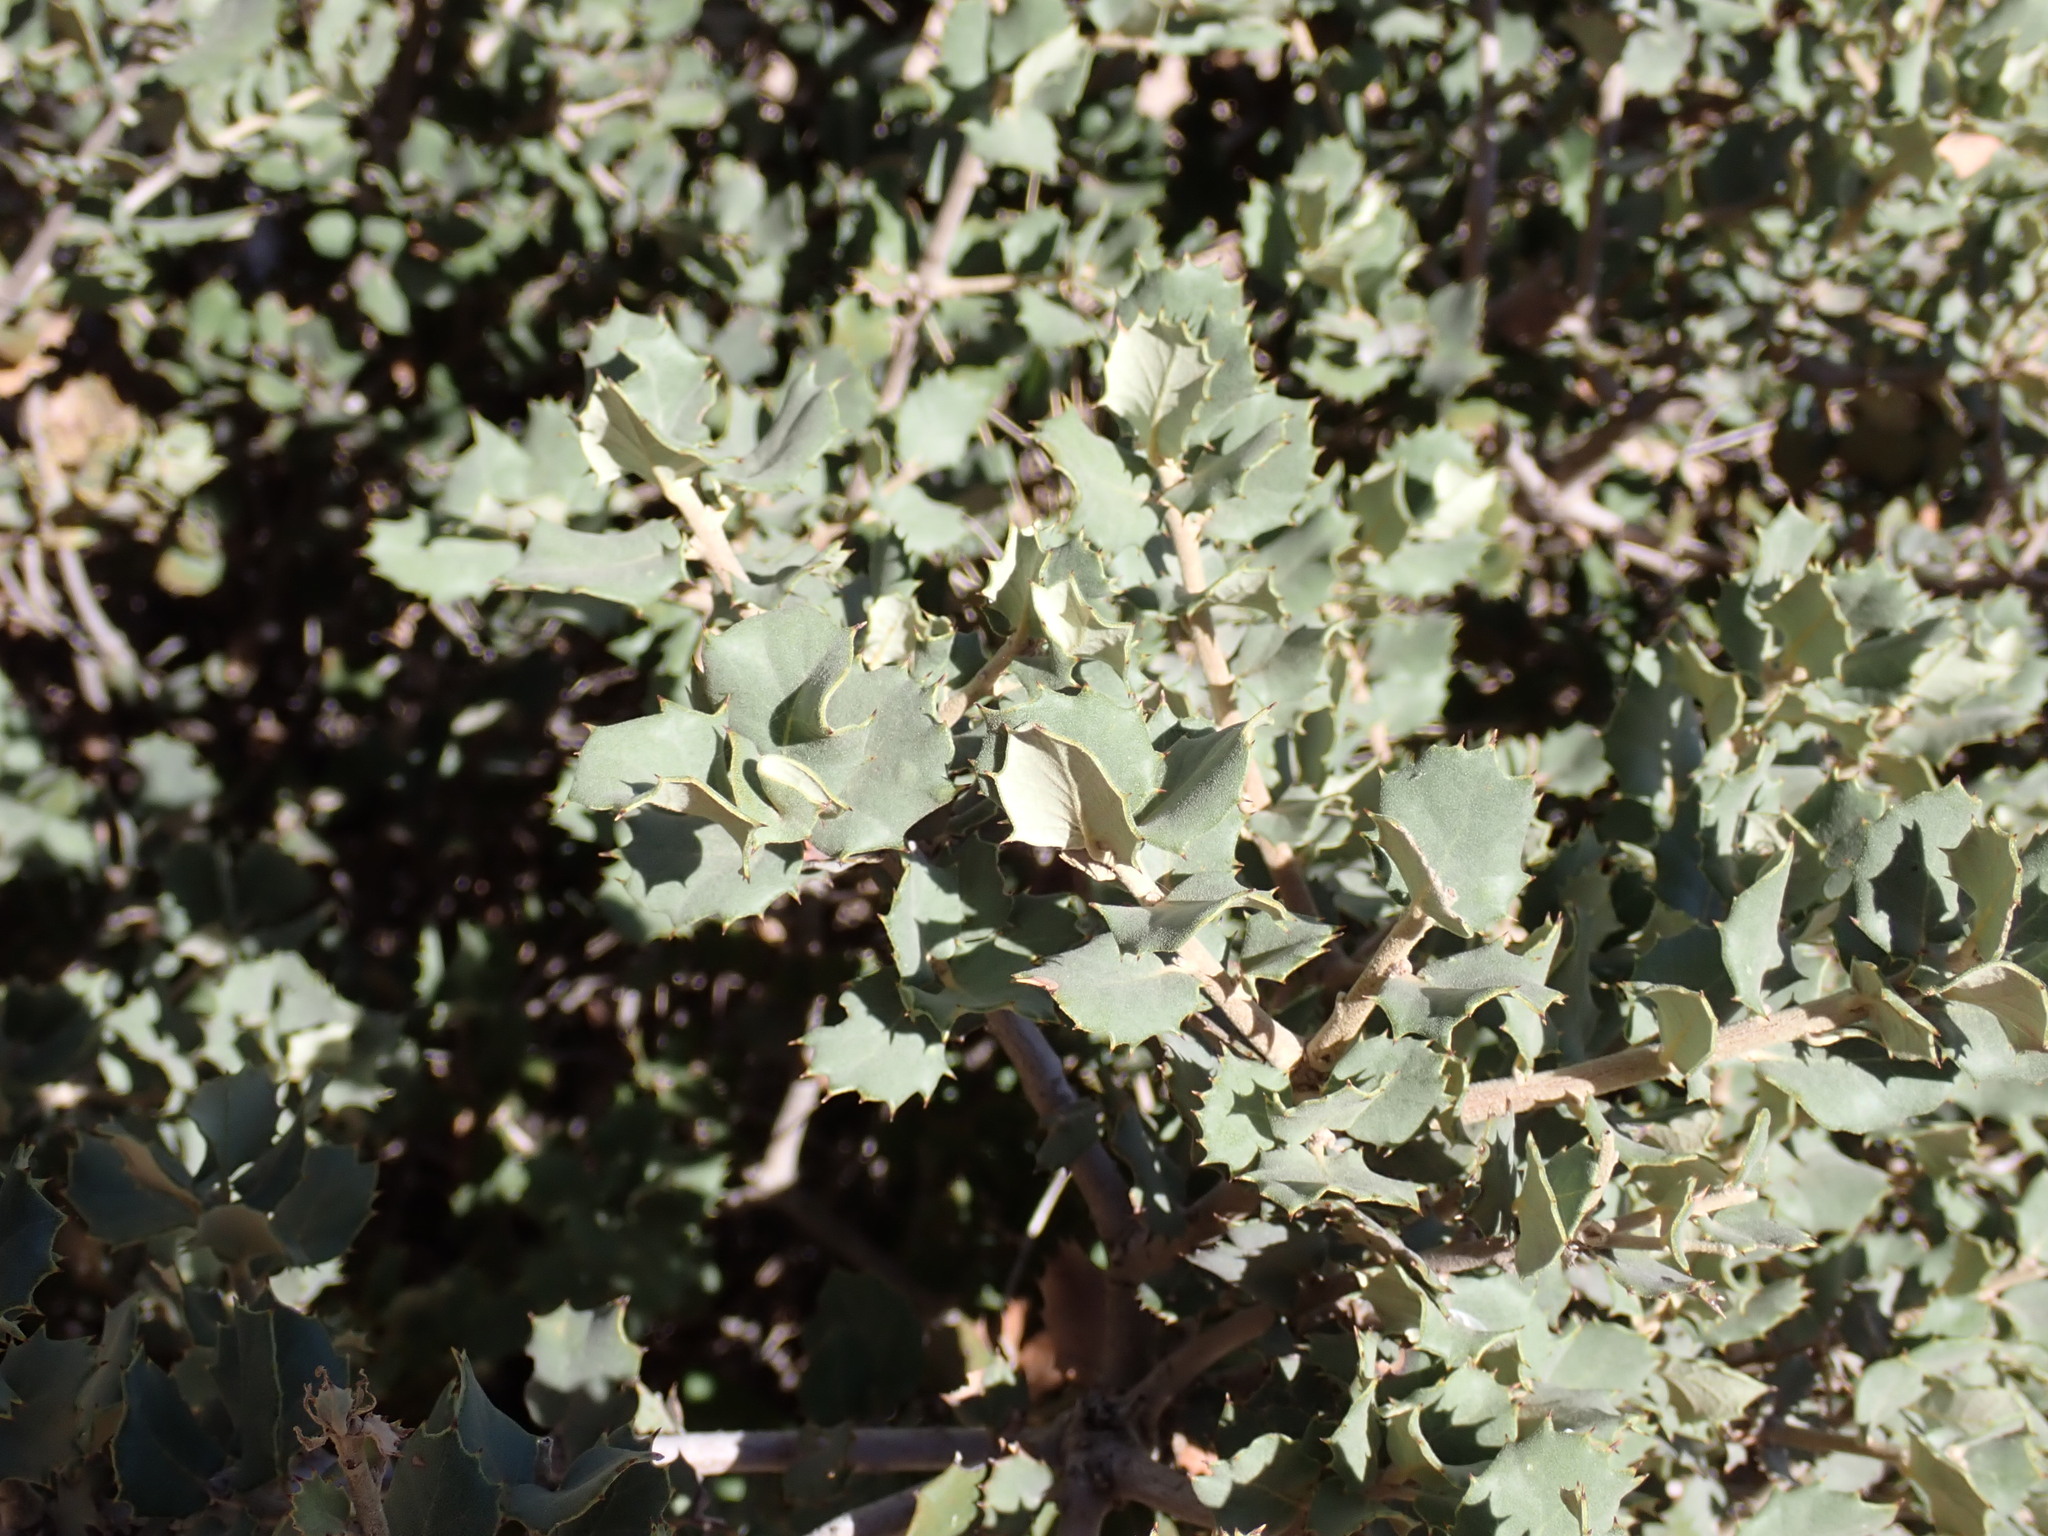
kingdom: Plantae
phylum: Tracheophyta
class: Magnoliopsida
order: Fagales
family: Fagaceae
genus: Quercus
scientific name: Quercus rotundifolia
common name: Holm oak
